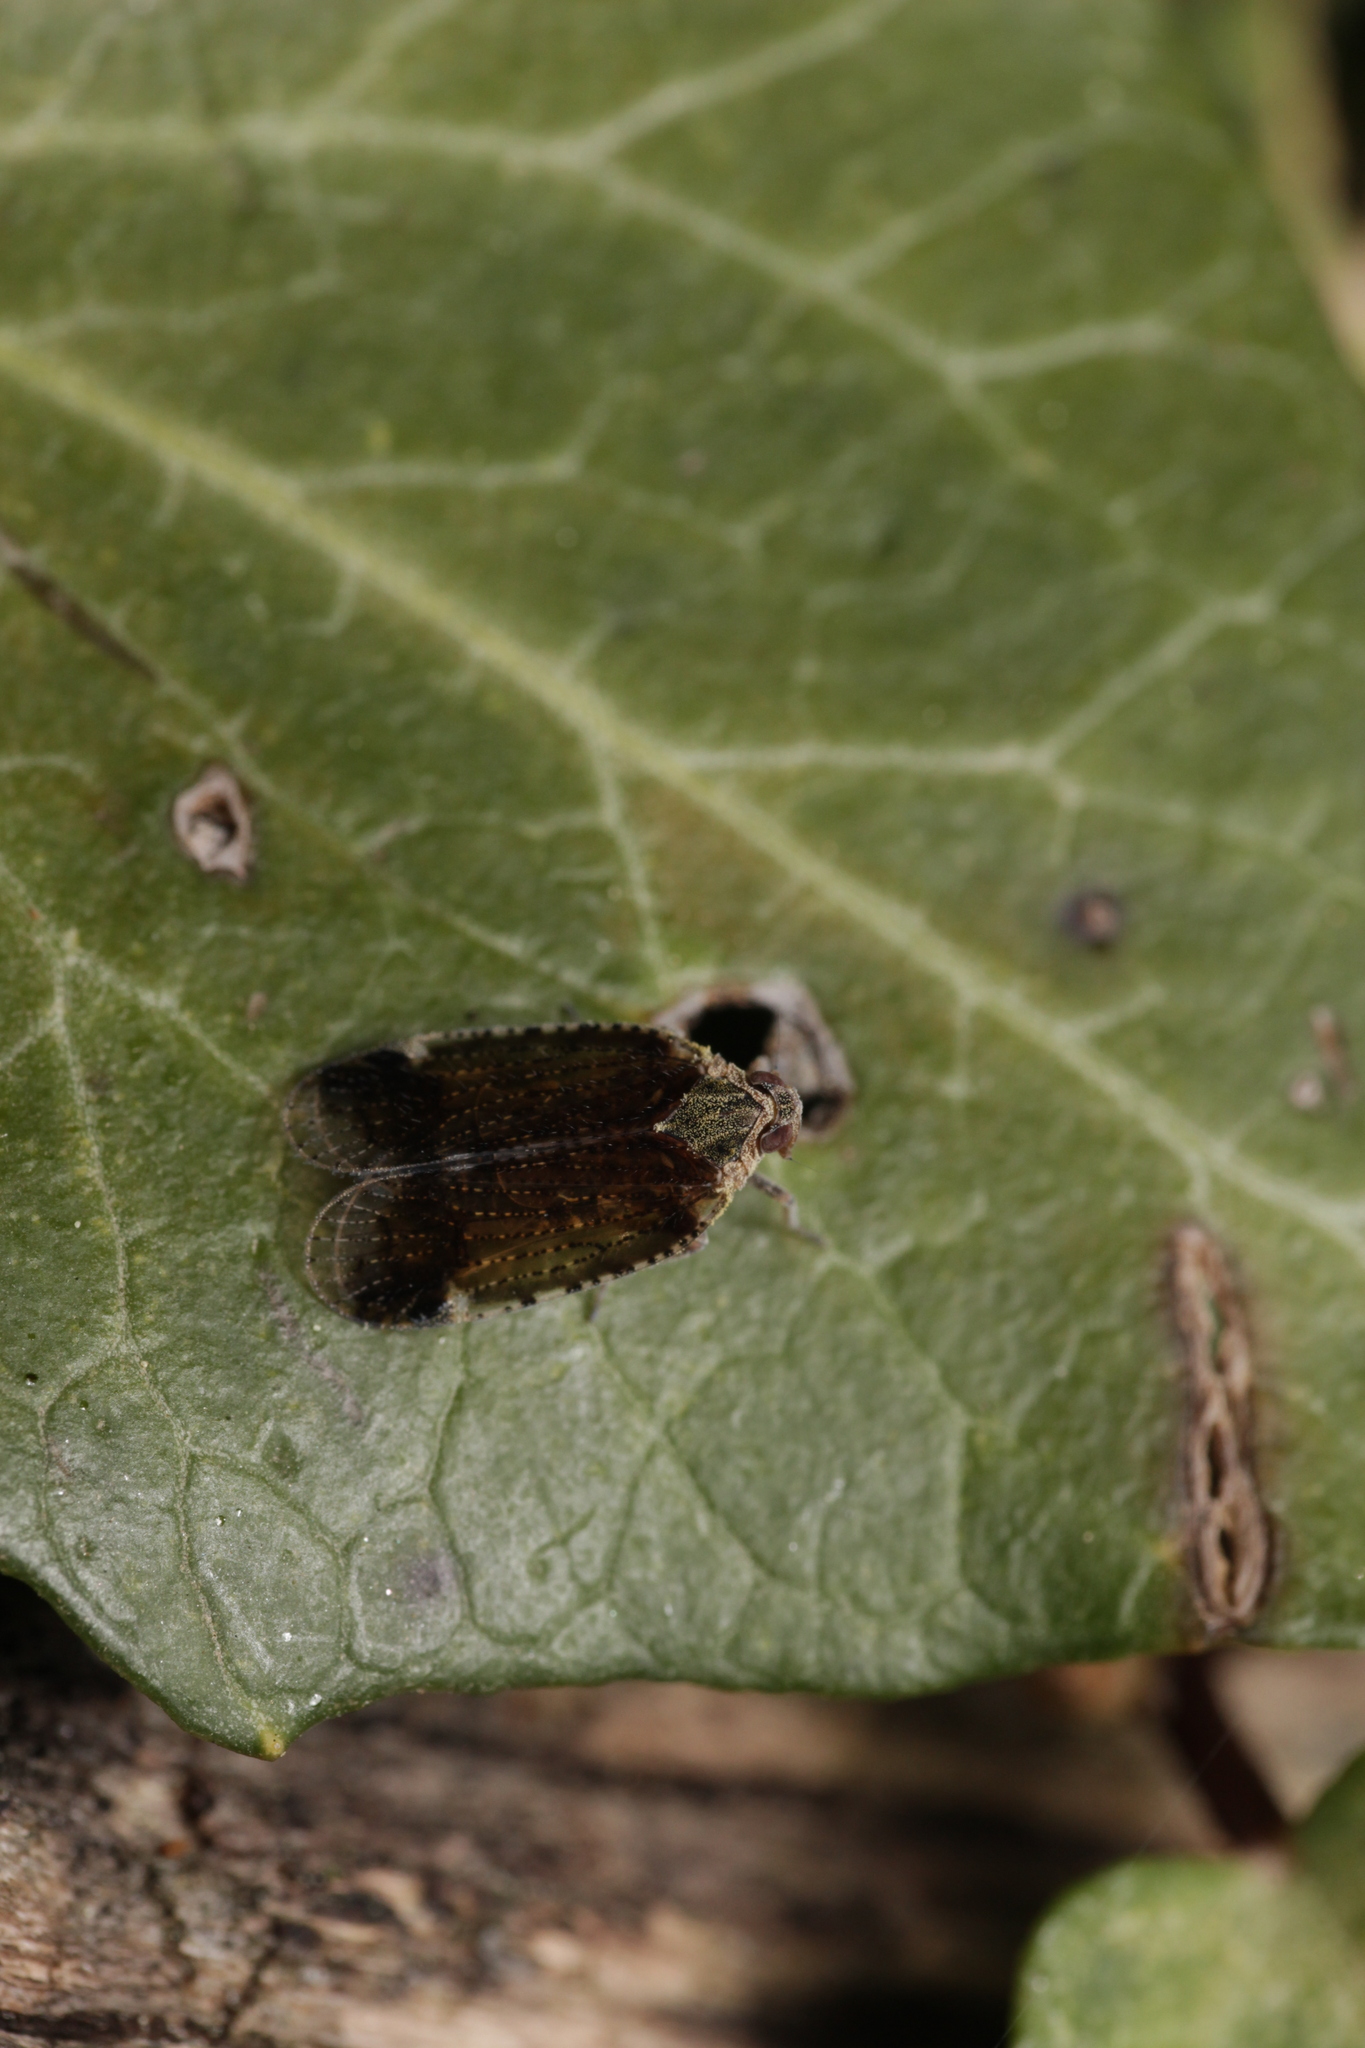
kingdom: Animalia
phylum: Arthropoda
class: Insecta
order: Hemiptera
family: Cixiidae
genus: Cixius
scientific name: Cixius cunicularius
